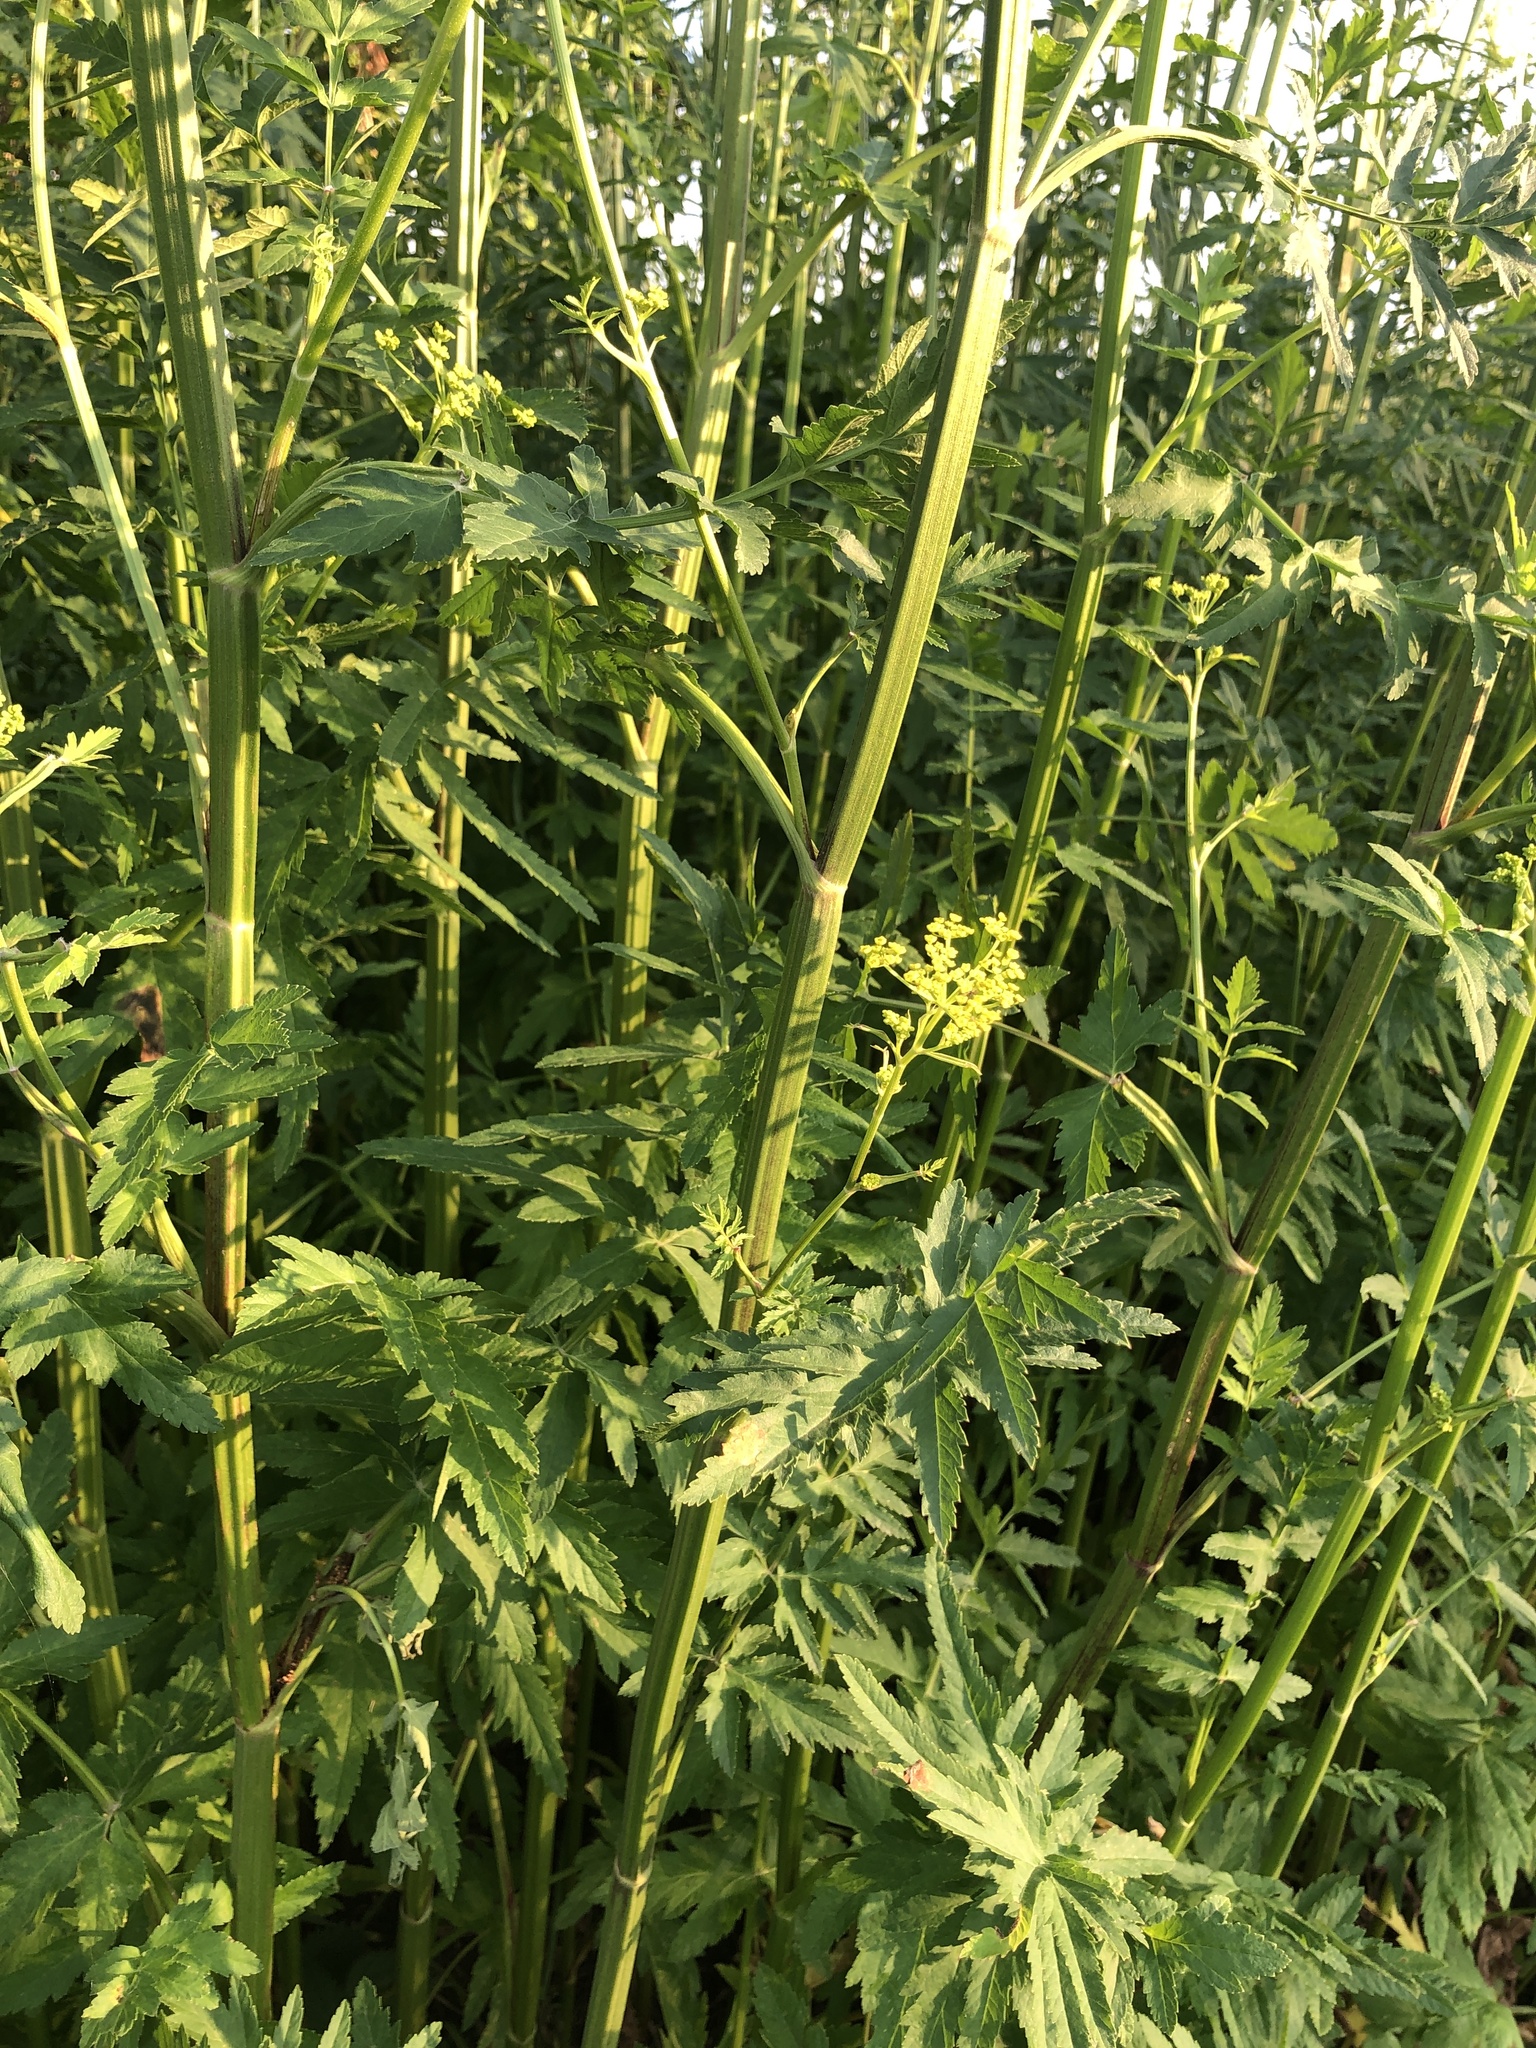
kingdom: Plantae
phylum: Tracheophyta
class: Magnoliopsida
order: Apiales
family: Apiaceae
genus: Pastinaca
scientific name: Pastinaca sativa
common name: Wild parsnip
